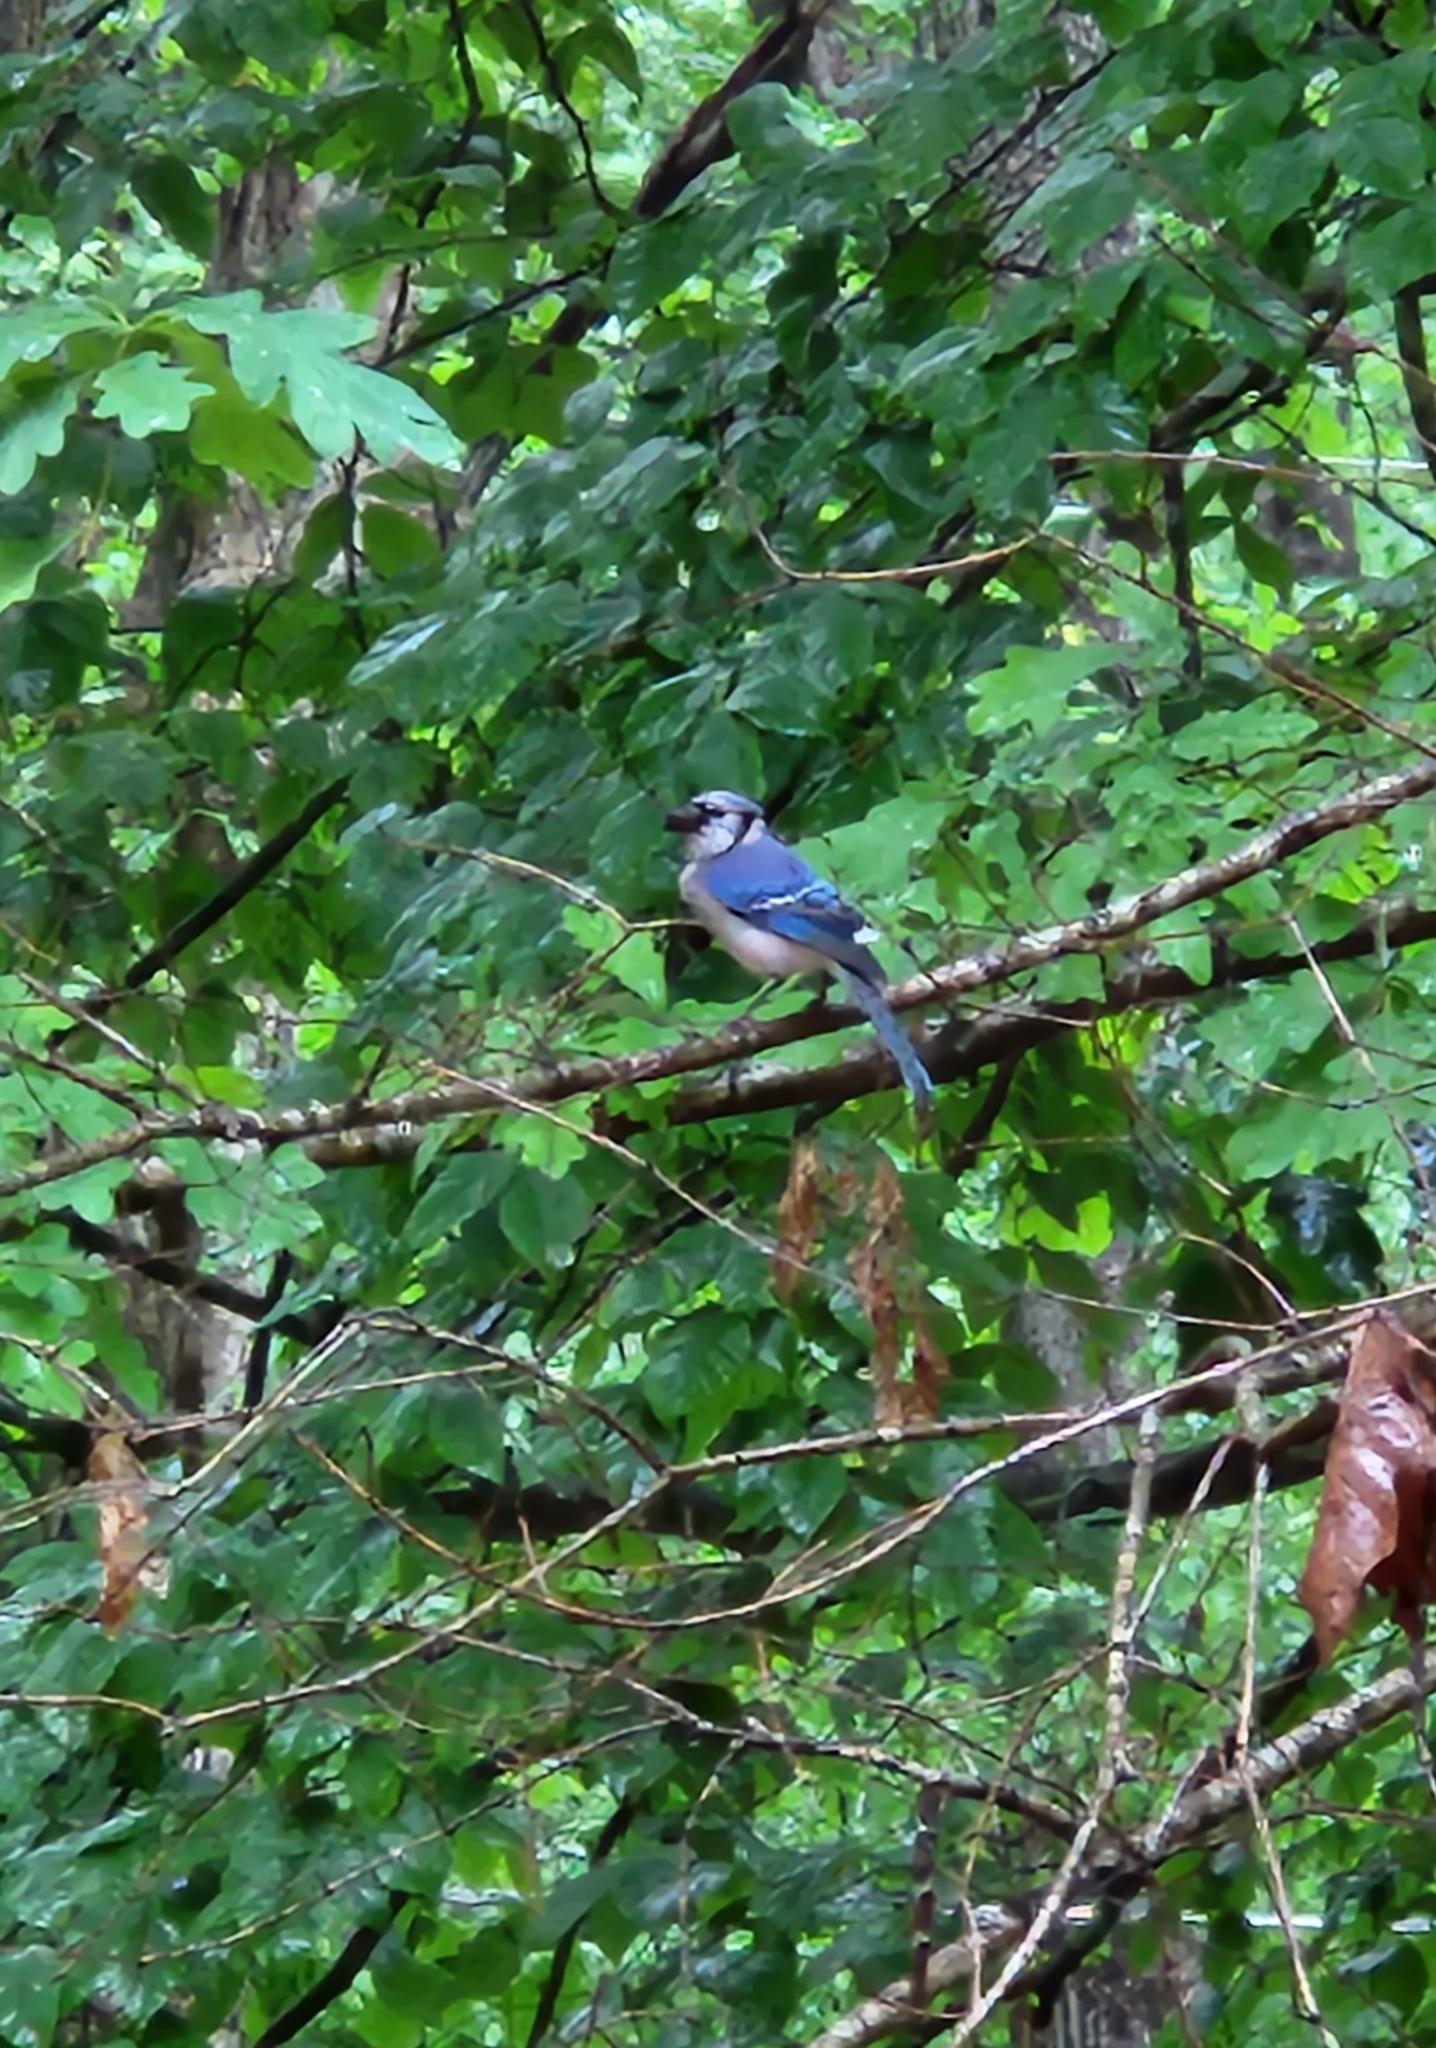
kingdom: Animalia
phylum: Chordata
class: Aves
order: Passeriformes
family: Corvidae
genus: Cyanocitta
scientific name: Cyanocitta cristata
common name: Blue jay
